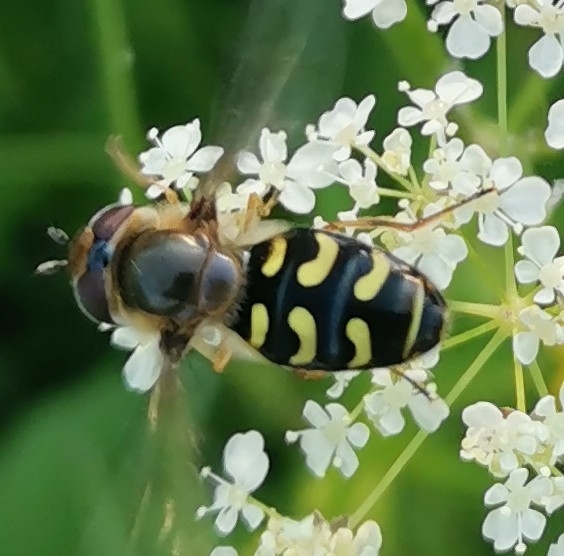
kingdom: Animalia
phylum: Arthropoda
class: Insecta
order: Diptera
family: Syrphidae
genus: Scaeva
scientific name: Scaeva selenitica
